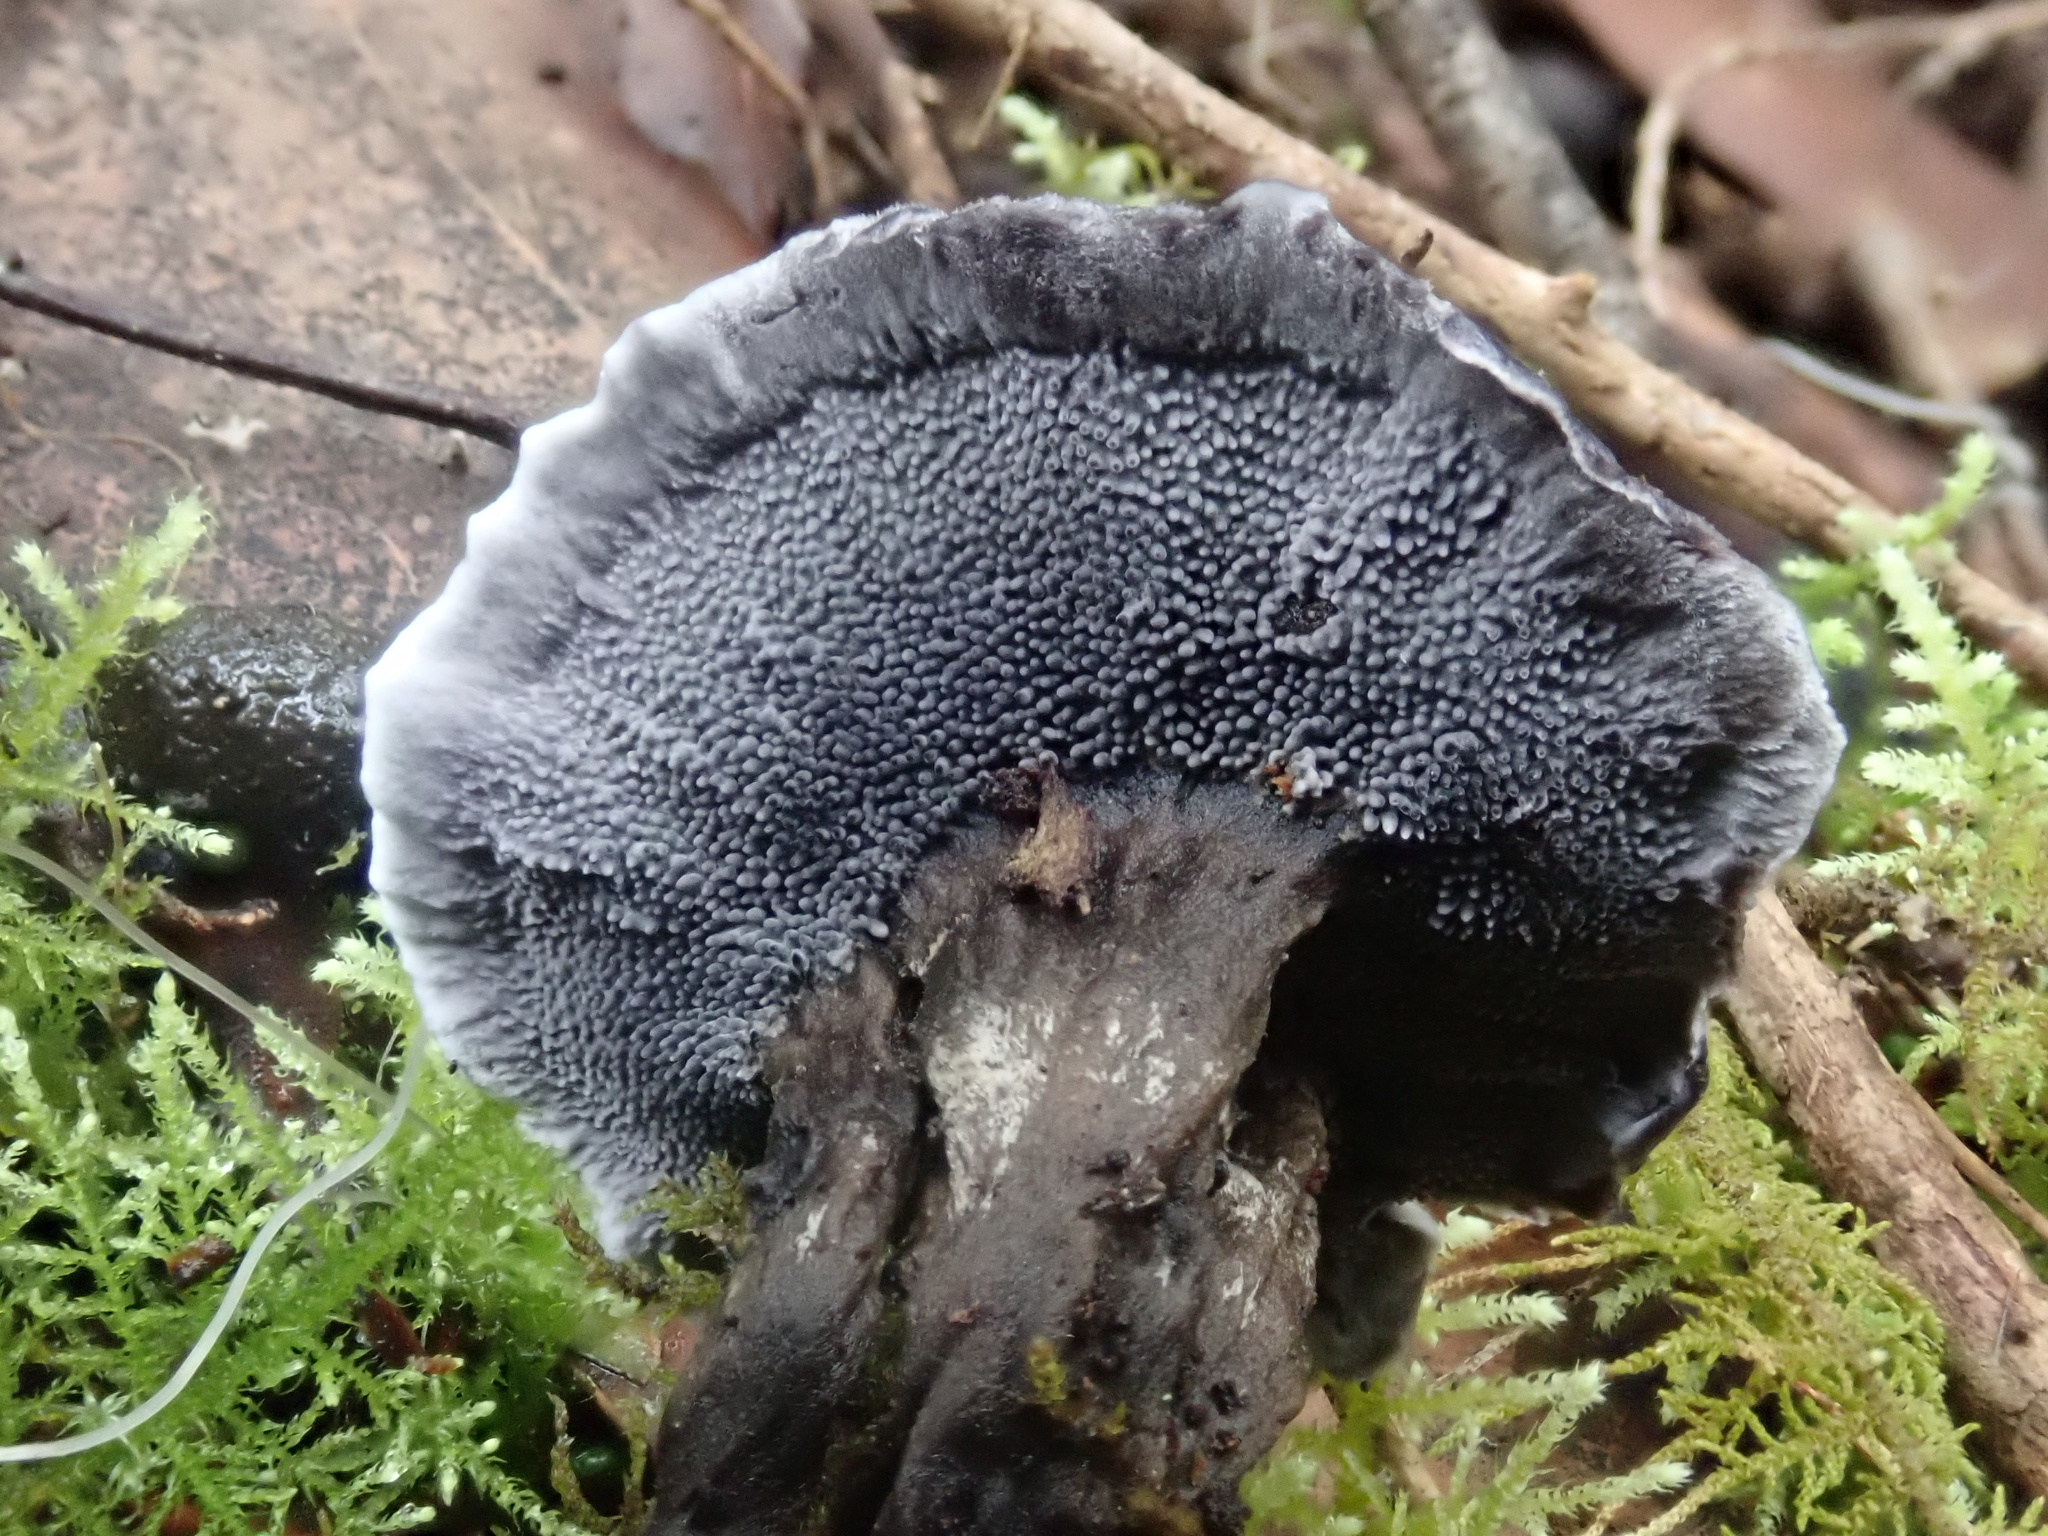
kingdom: Fungi
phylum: Basidiomycota
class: Agaricomycetes
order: Thelephorales
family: Thelephoraceae
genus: Phellodon
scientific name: Phellodon niger
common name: Black tooth
